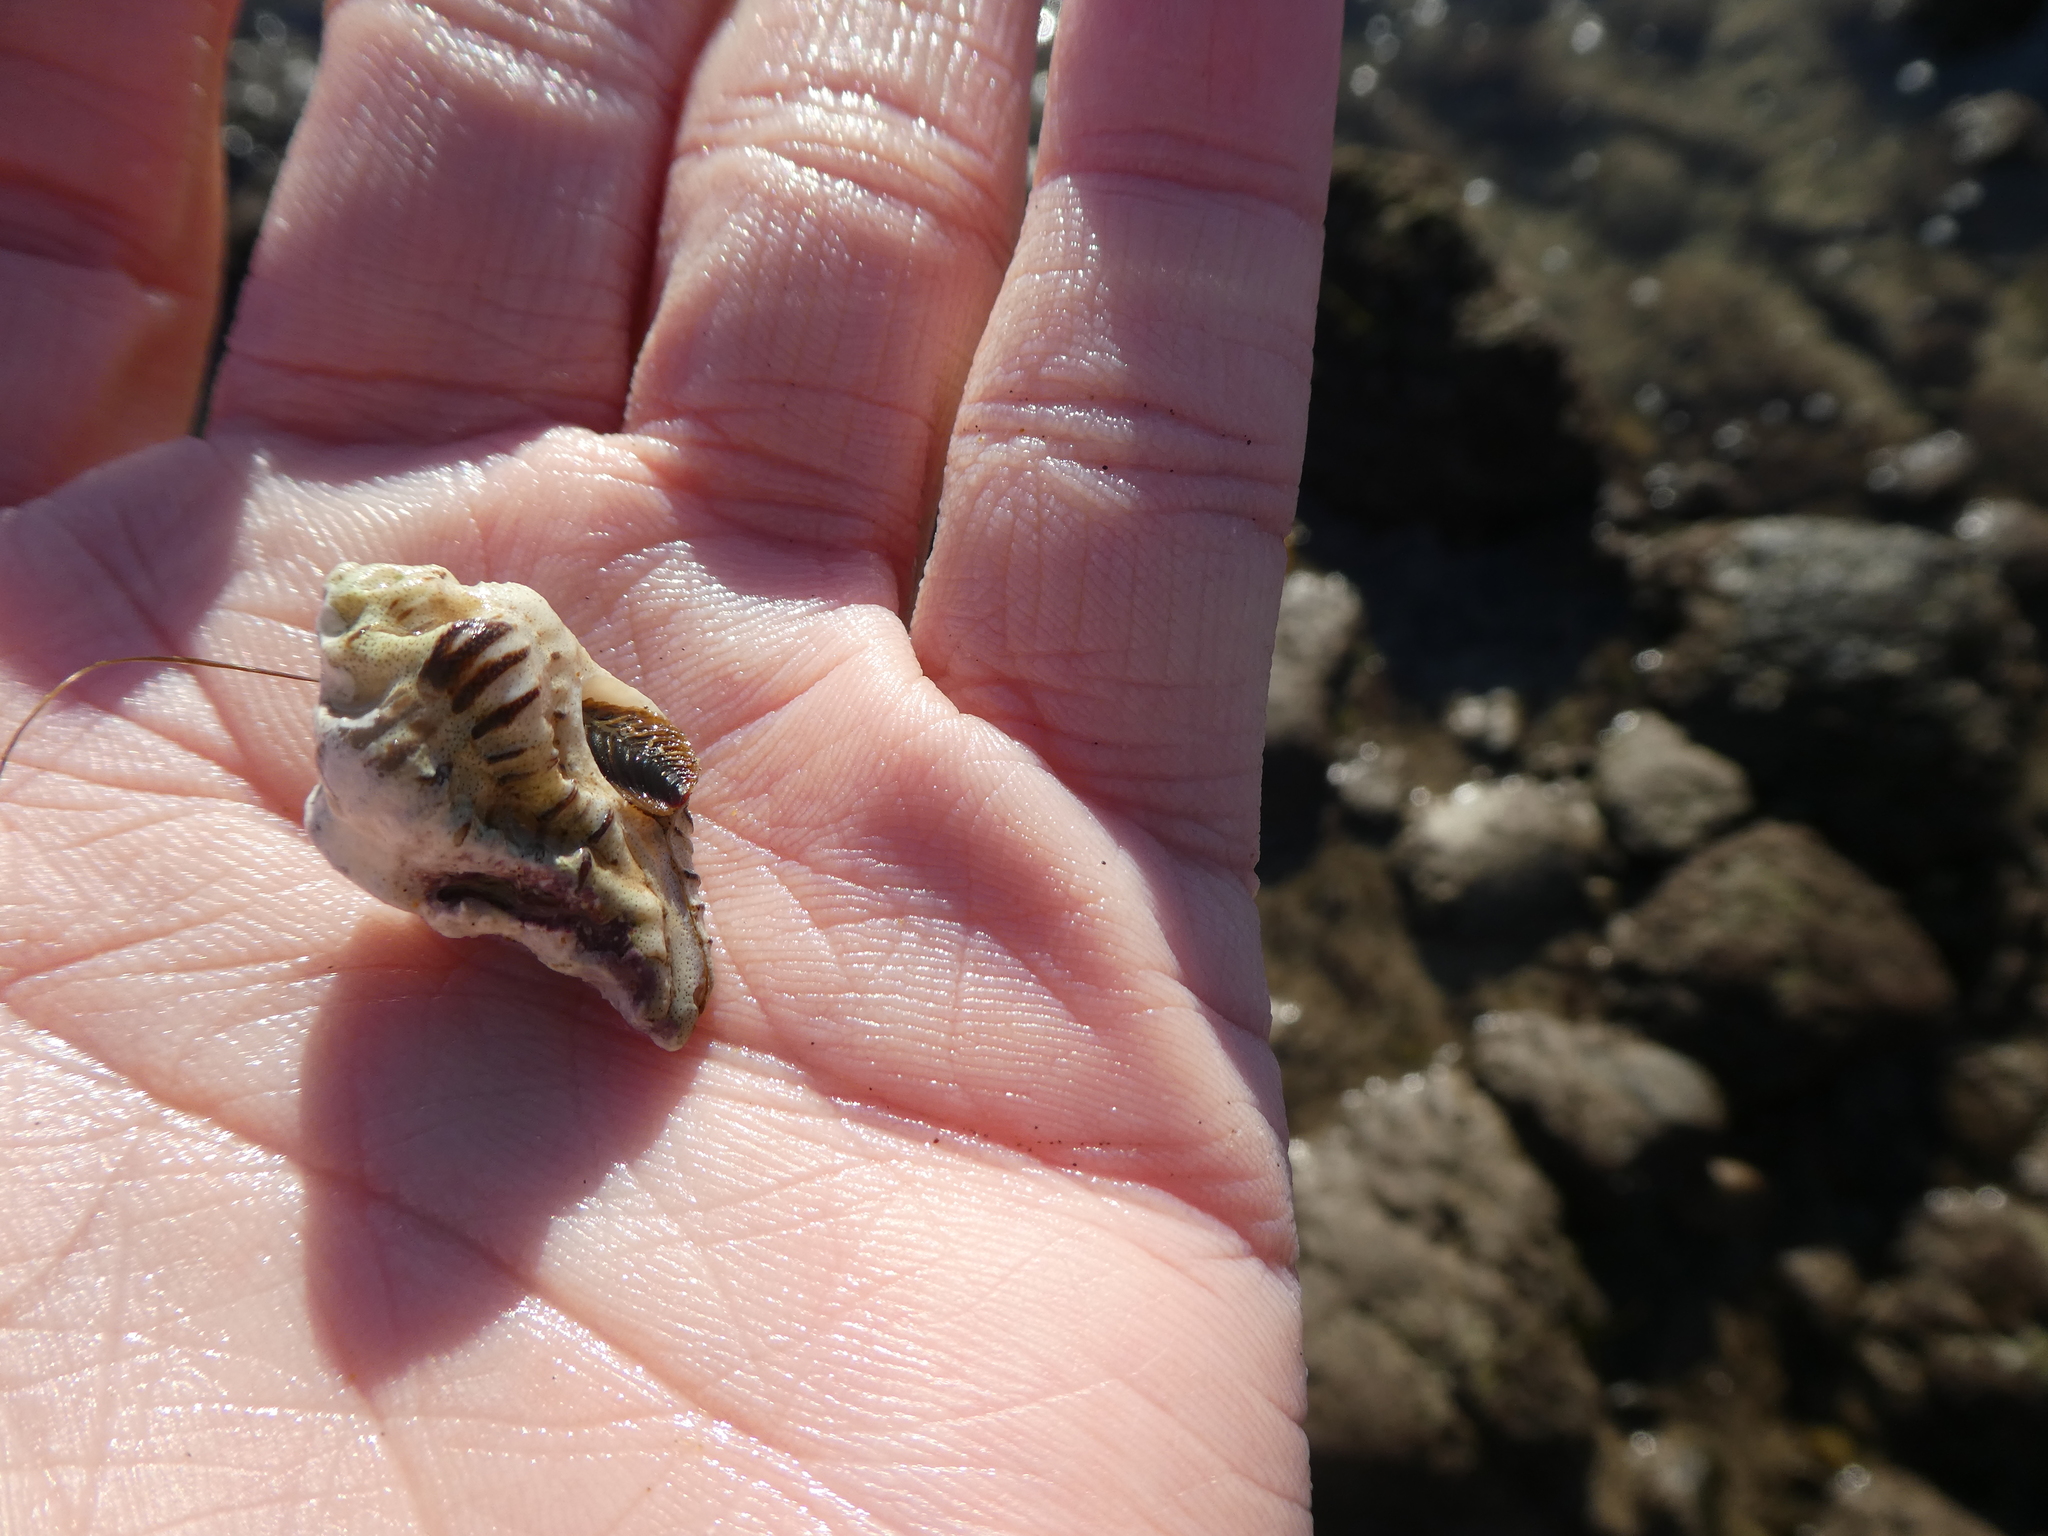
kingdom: Animalia
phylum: Mollusca
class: Gastropoda
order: Neogastropoda
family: Muricidae
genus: Maxwellia
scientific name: Maxwellia gemma
